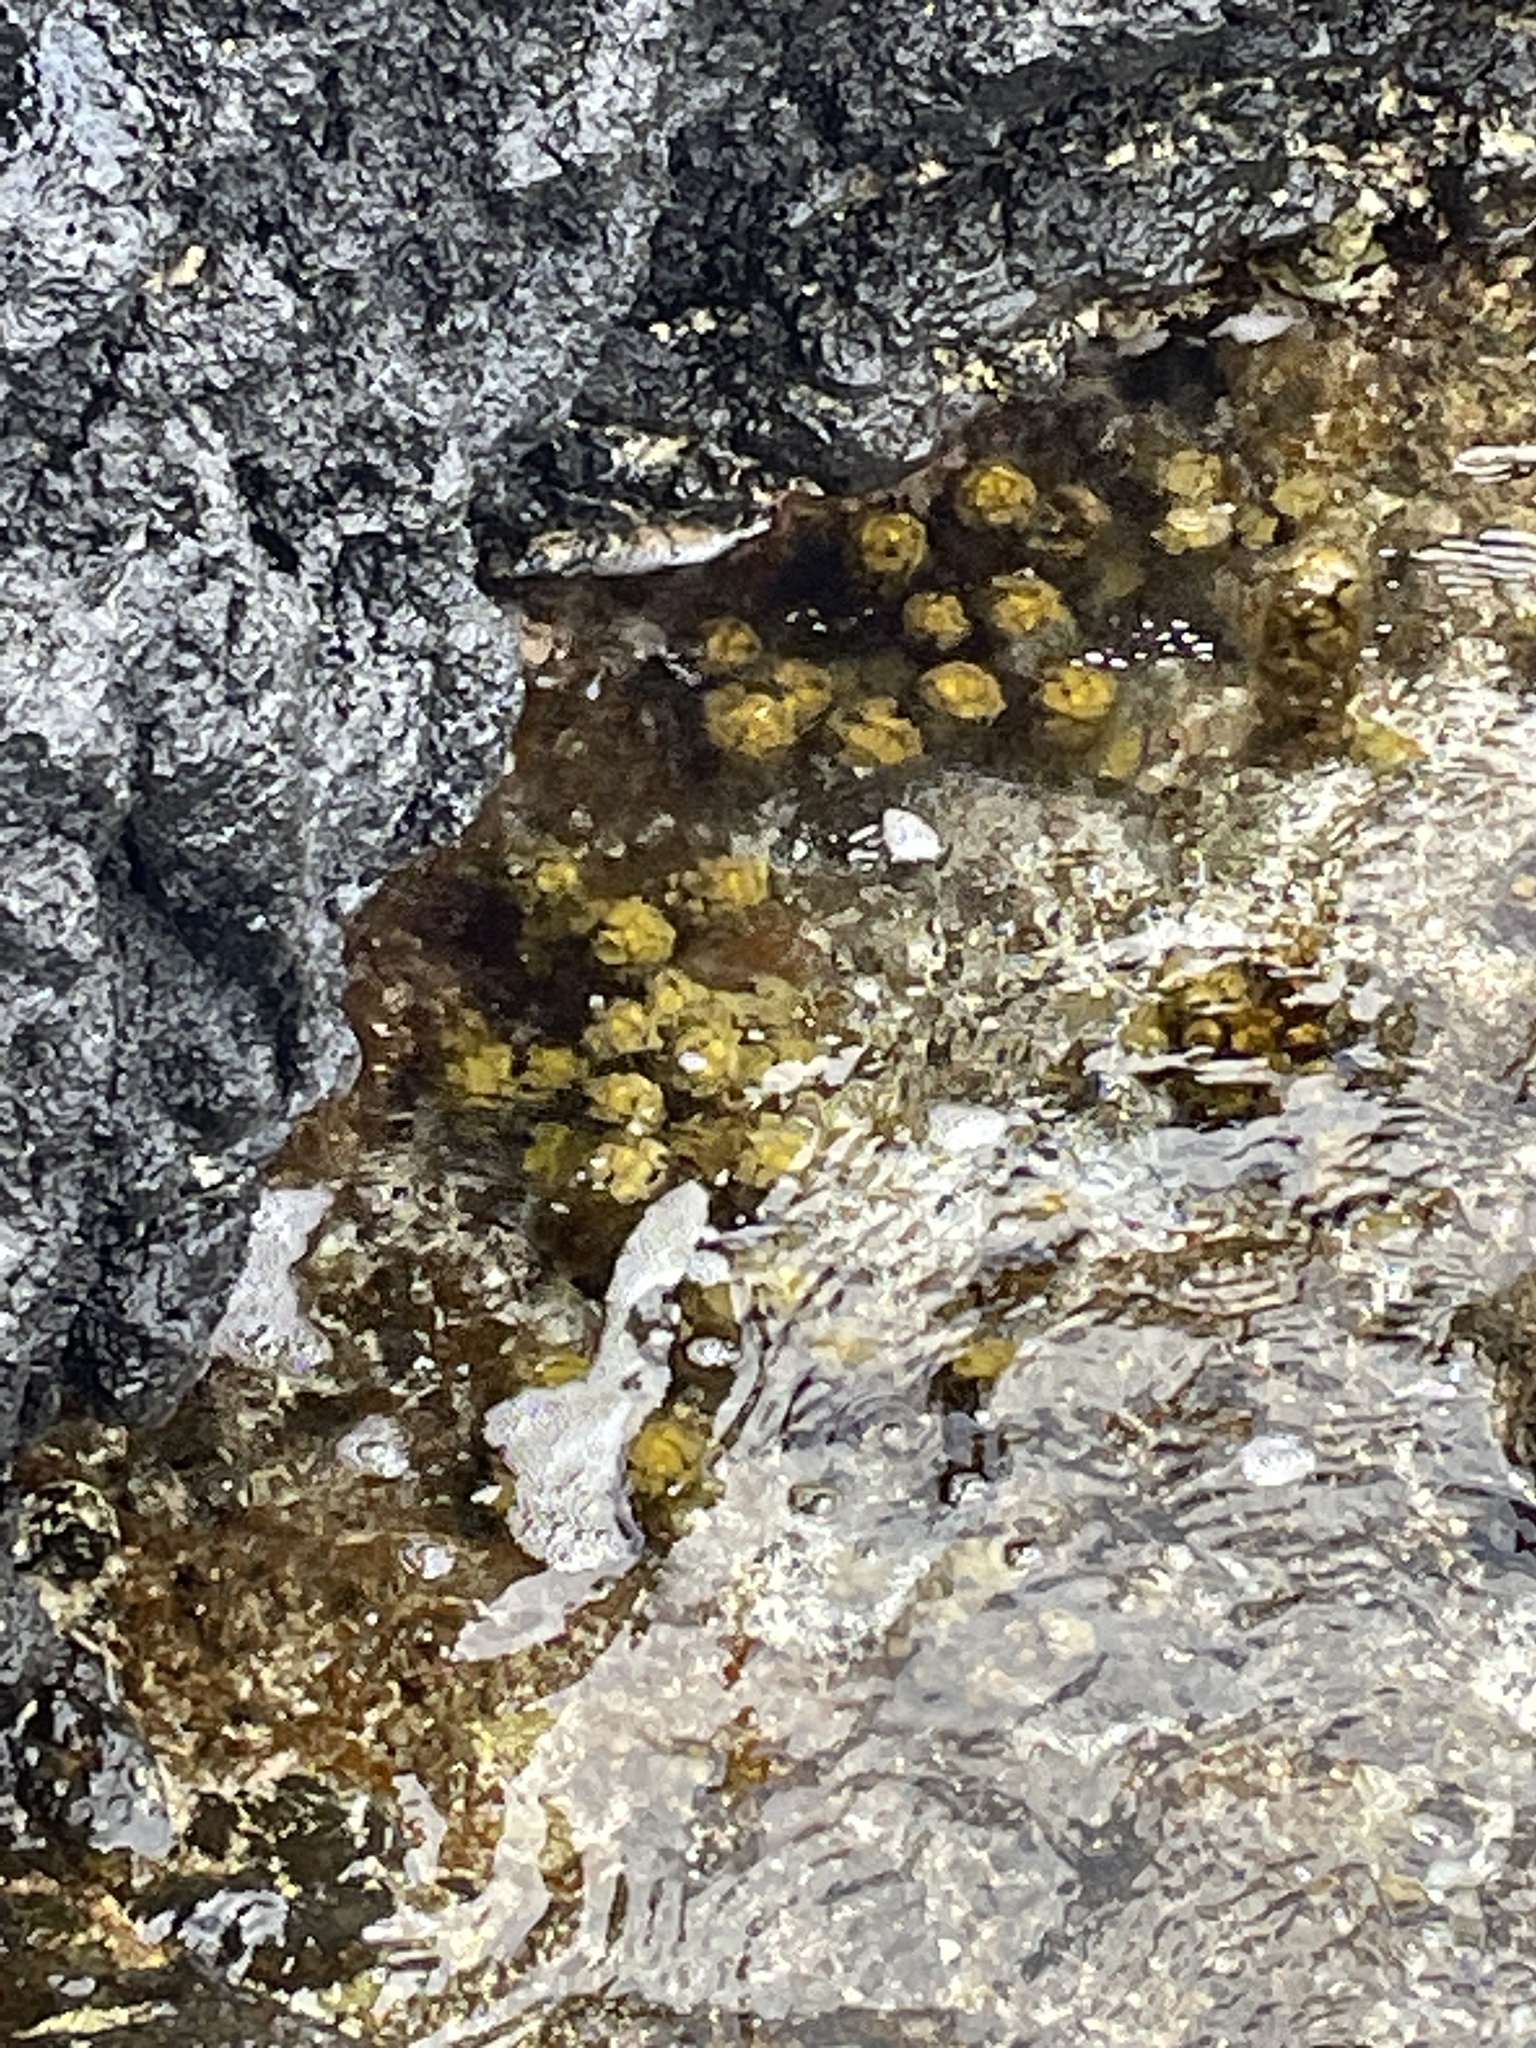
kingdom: Chromista
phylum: Ochrophyta
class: Phaeophyceae
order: Fucales
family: Sargassaceae
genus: Turbinaria
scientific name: Turbinaria ornata
